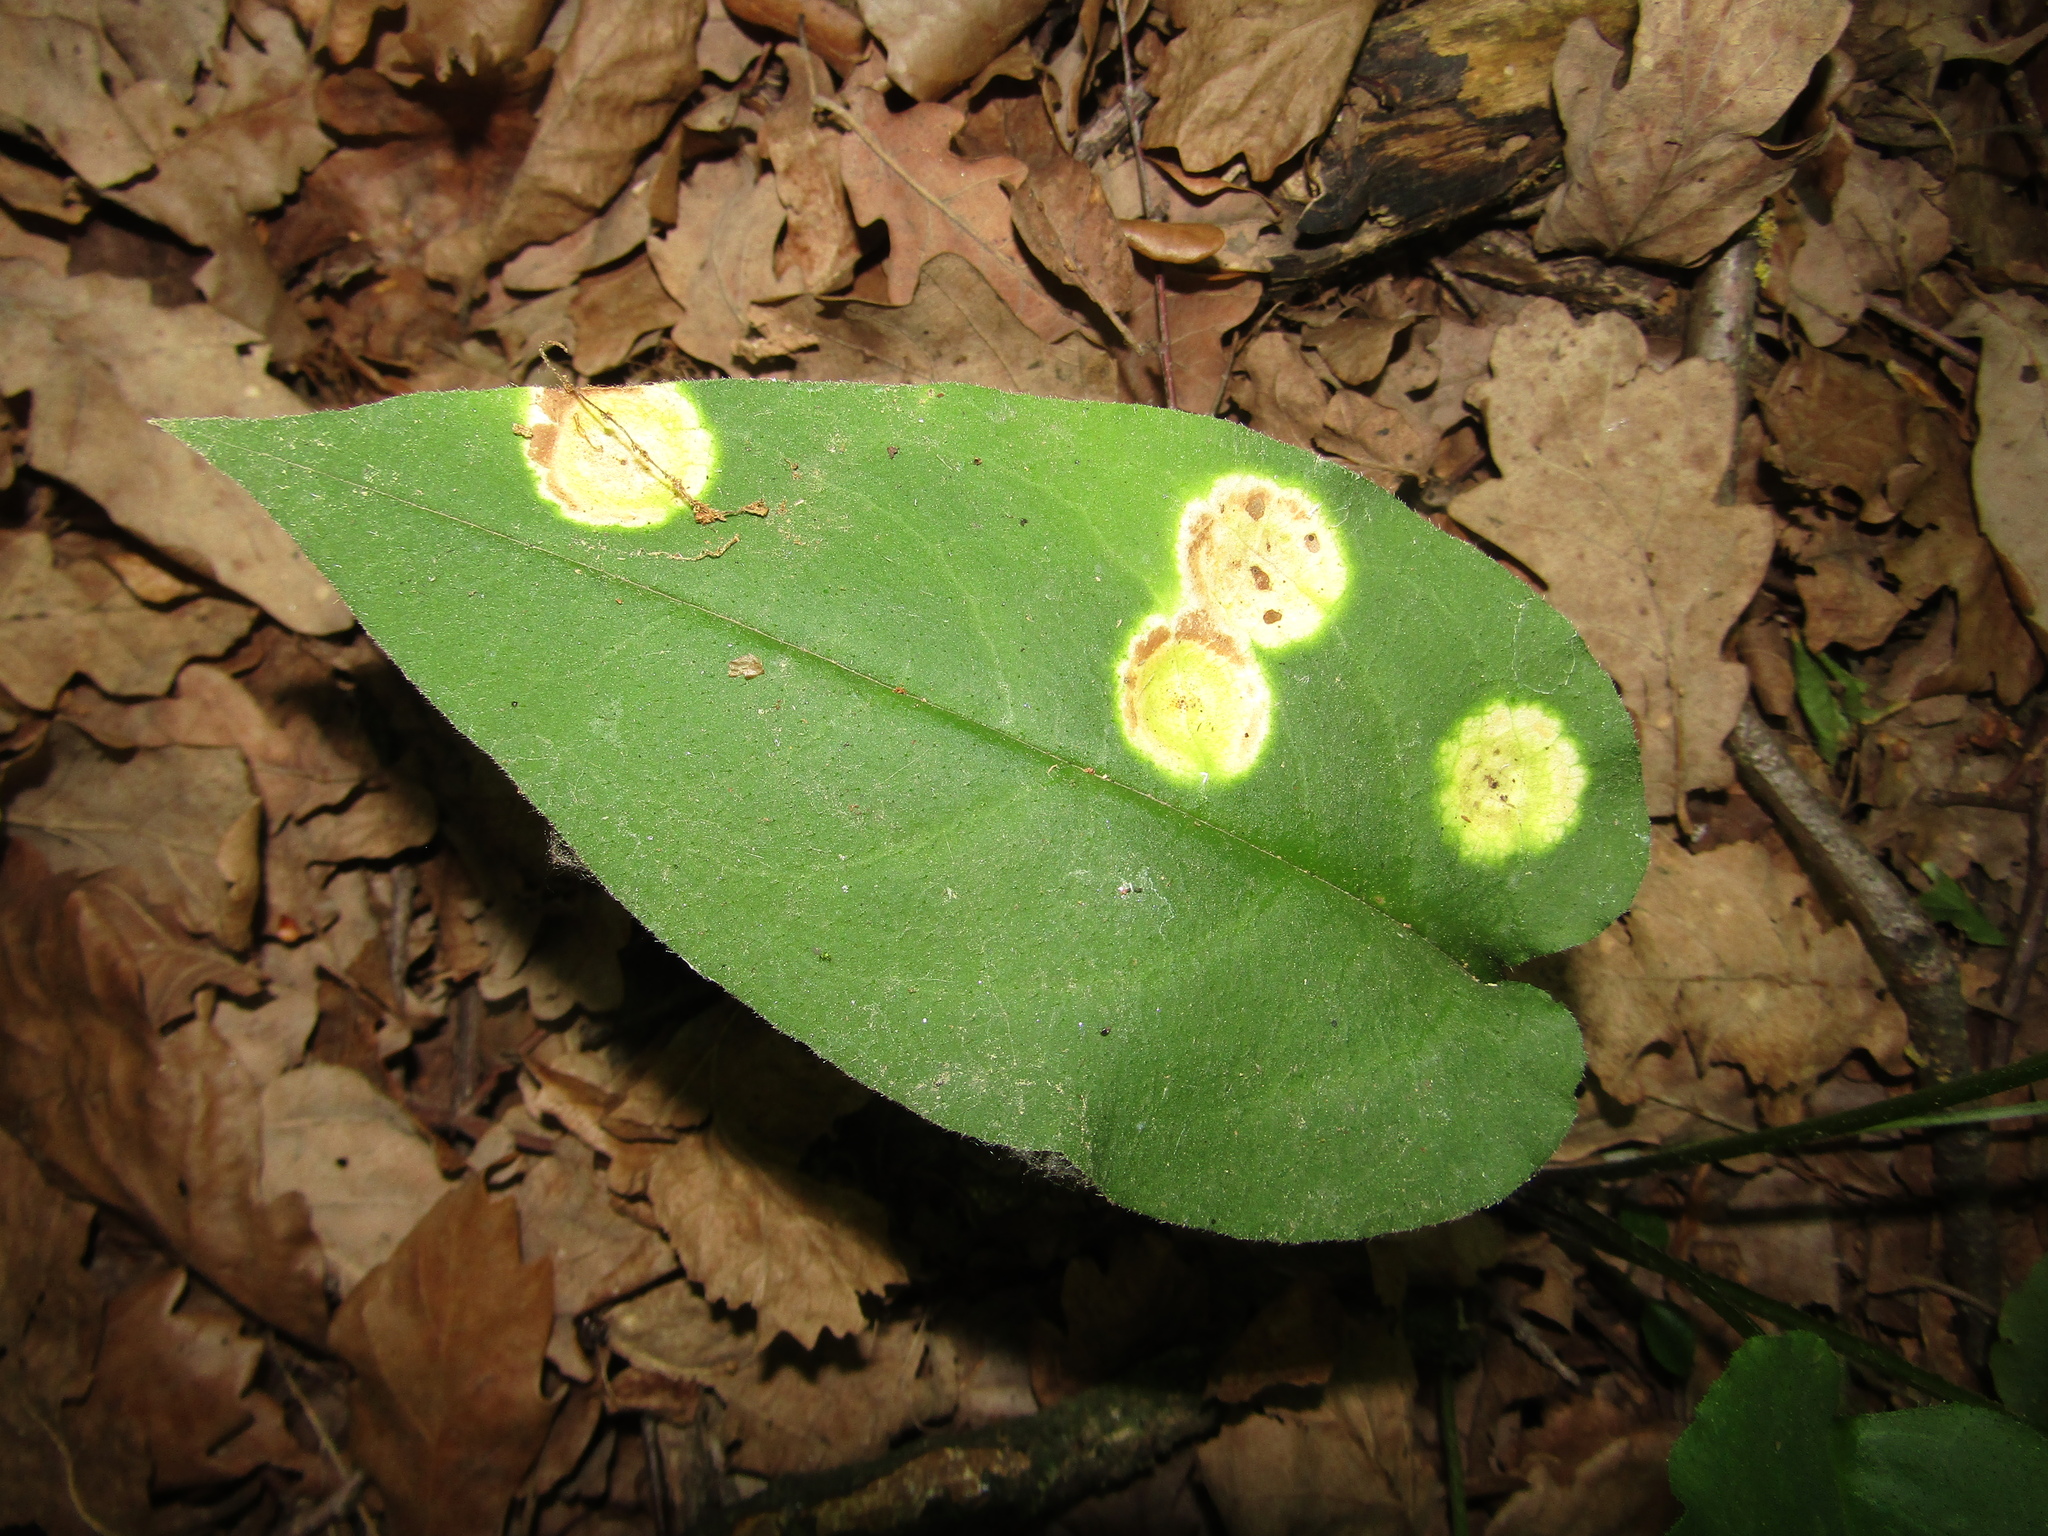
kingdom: Plantae
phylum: Tracheophyta
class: Magnoliopsida
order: Boraginales
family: Boraginaceae
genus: Pulmonaria
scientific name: Pulmonaria obscura
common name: Suffolk lungwort
